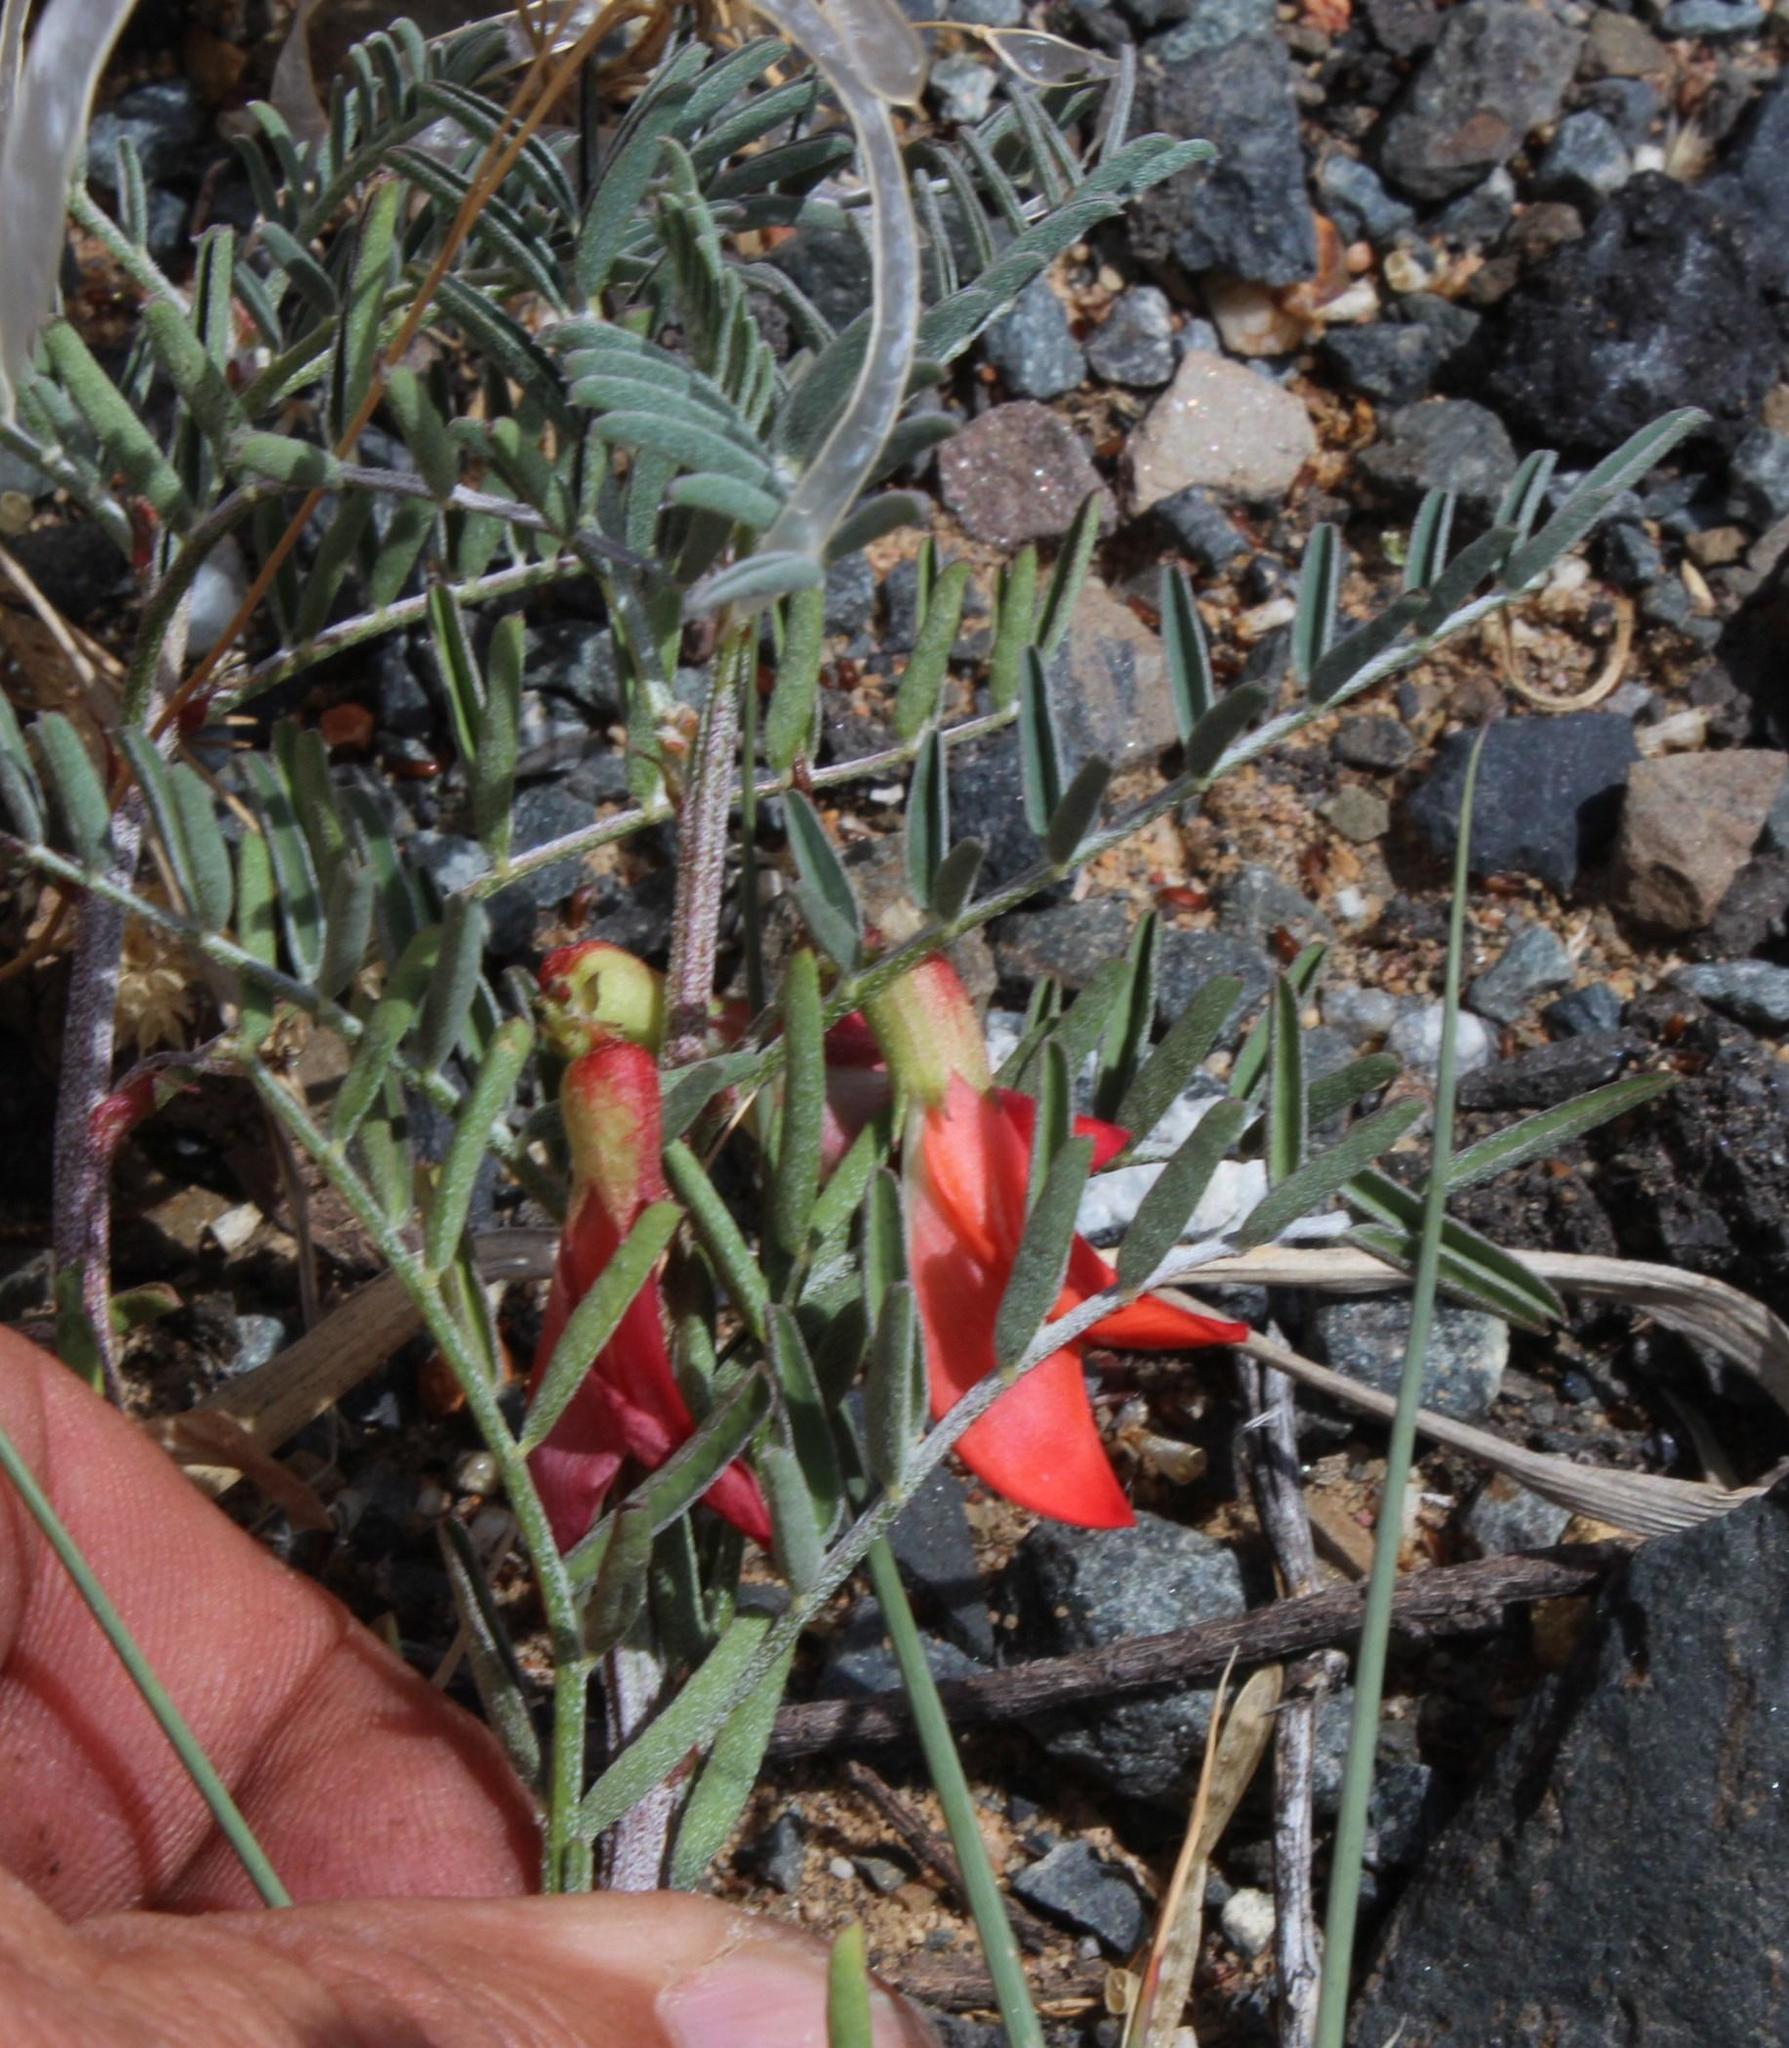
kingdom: Plantae
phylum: Tracheophyta
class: Magnoliopsida
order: Fabales
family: Fabaceae
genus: Lessertia
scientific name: Lessertia frutescens
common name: Balloon-pea
